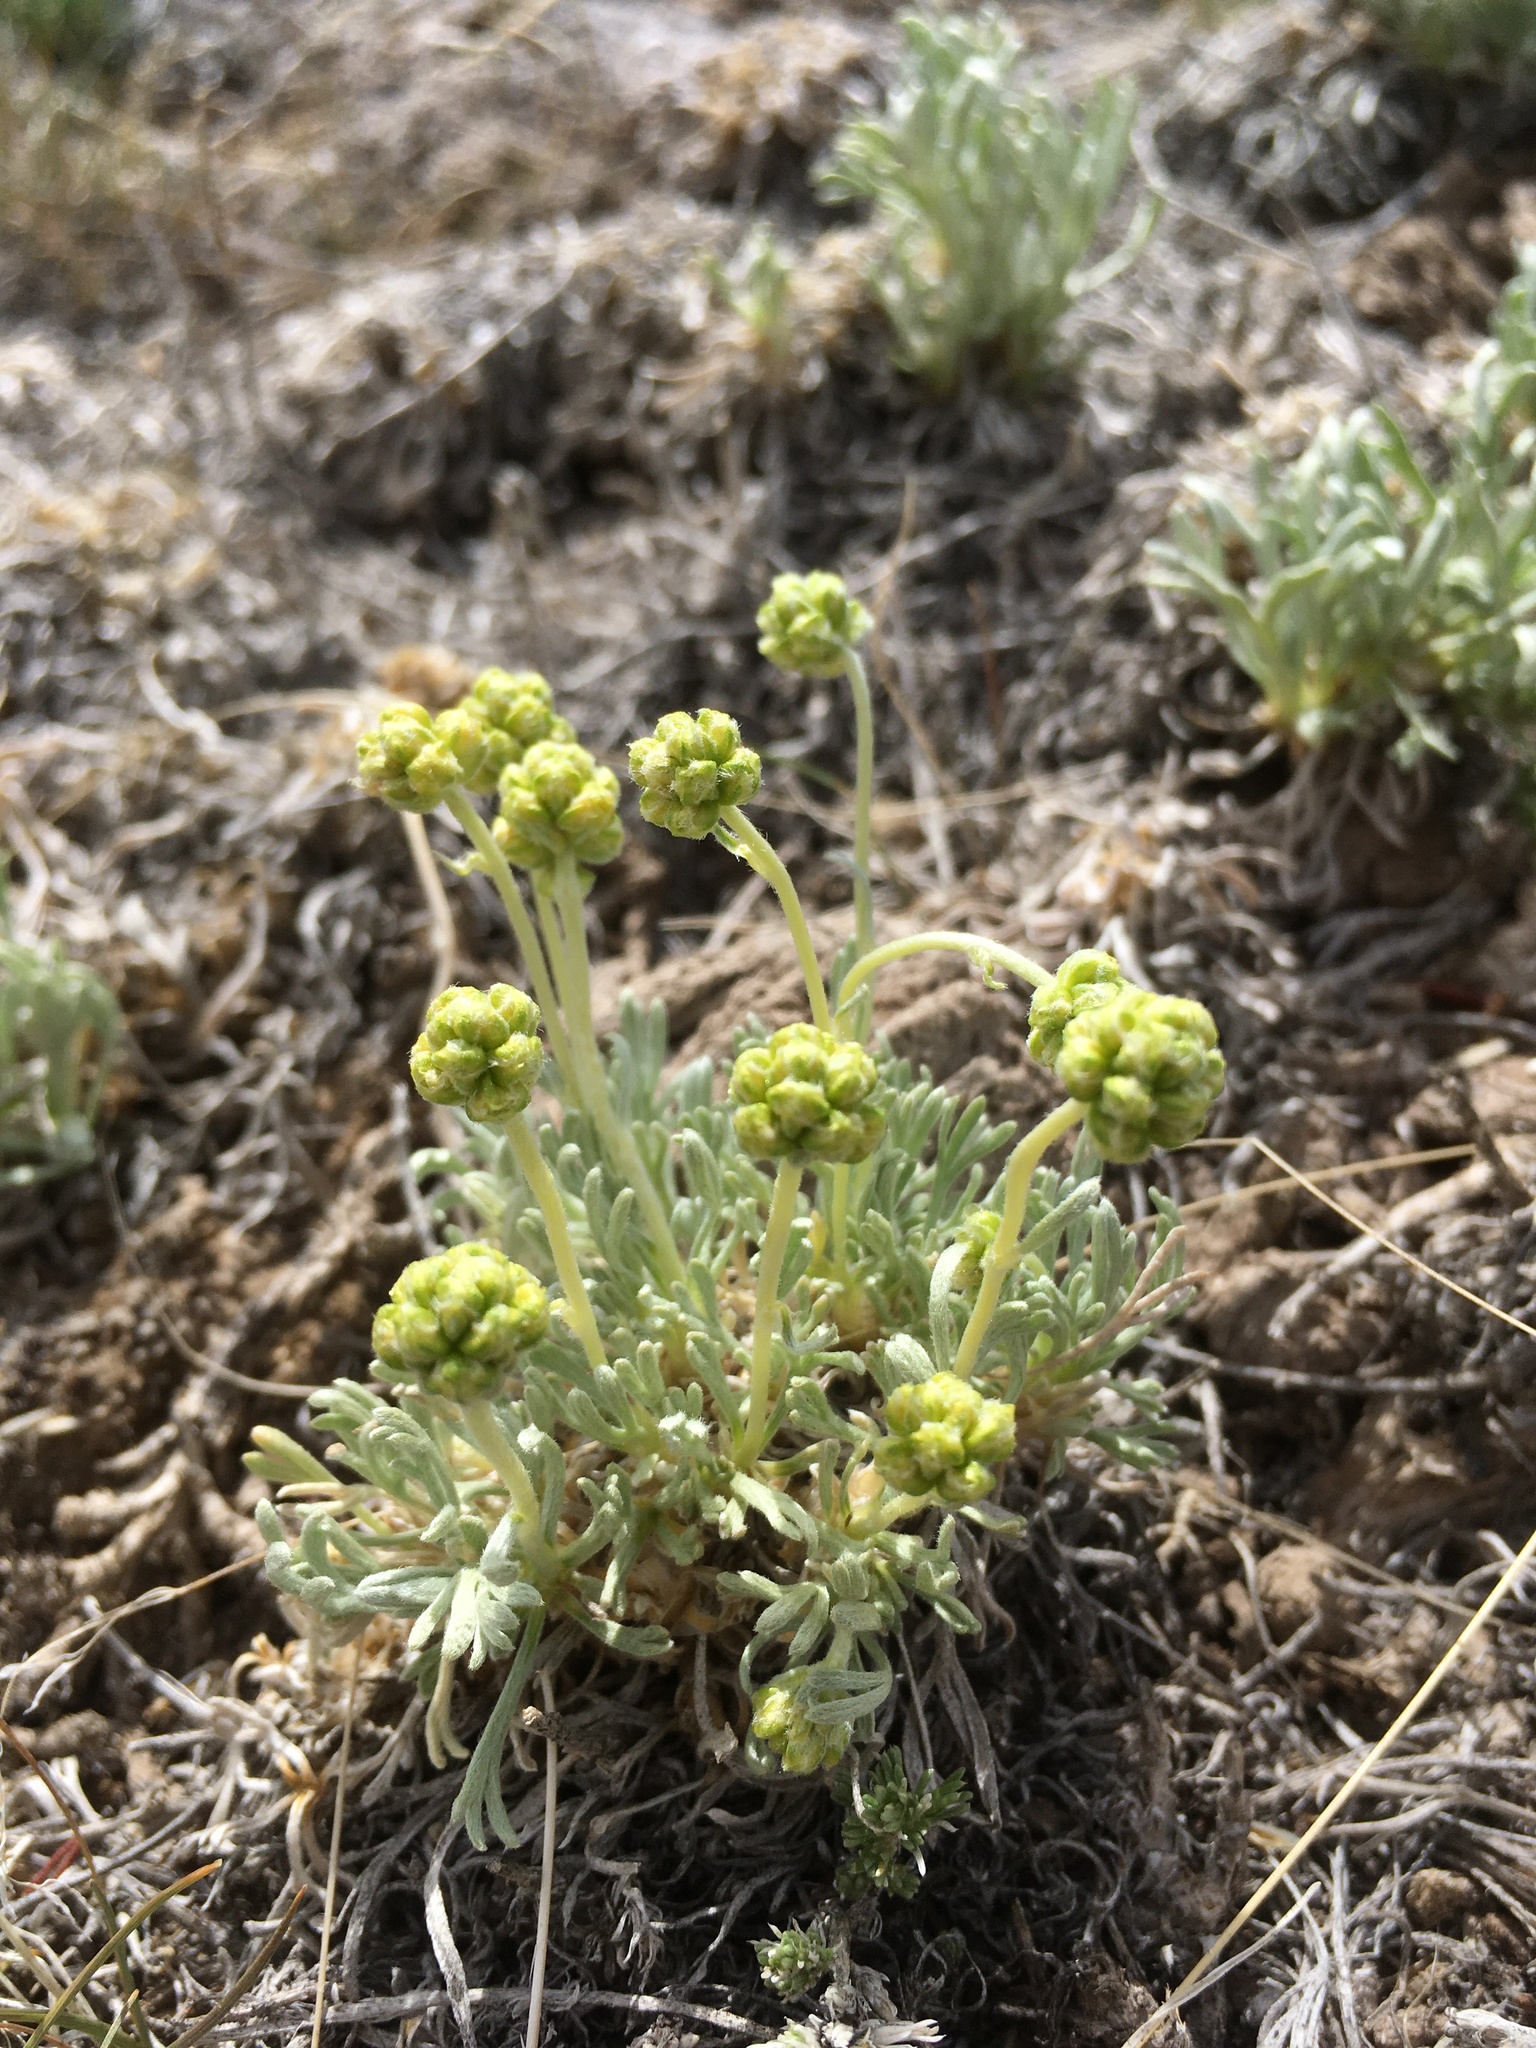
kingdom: Plantae
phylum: Tracheophyta
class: Magnoliopsida
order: Asterales
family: Asteraceae
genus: Artemisia
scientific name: Artemisia capitata
